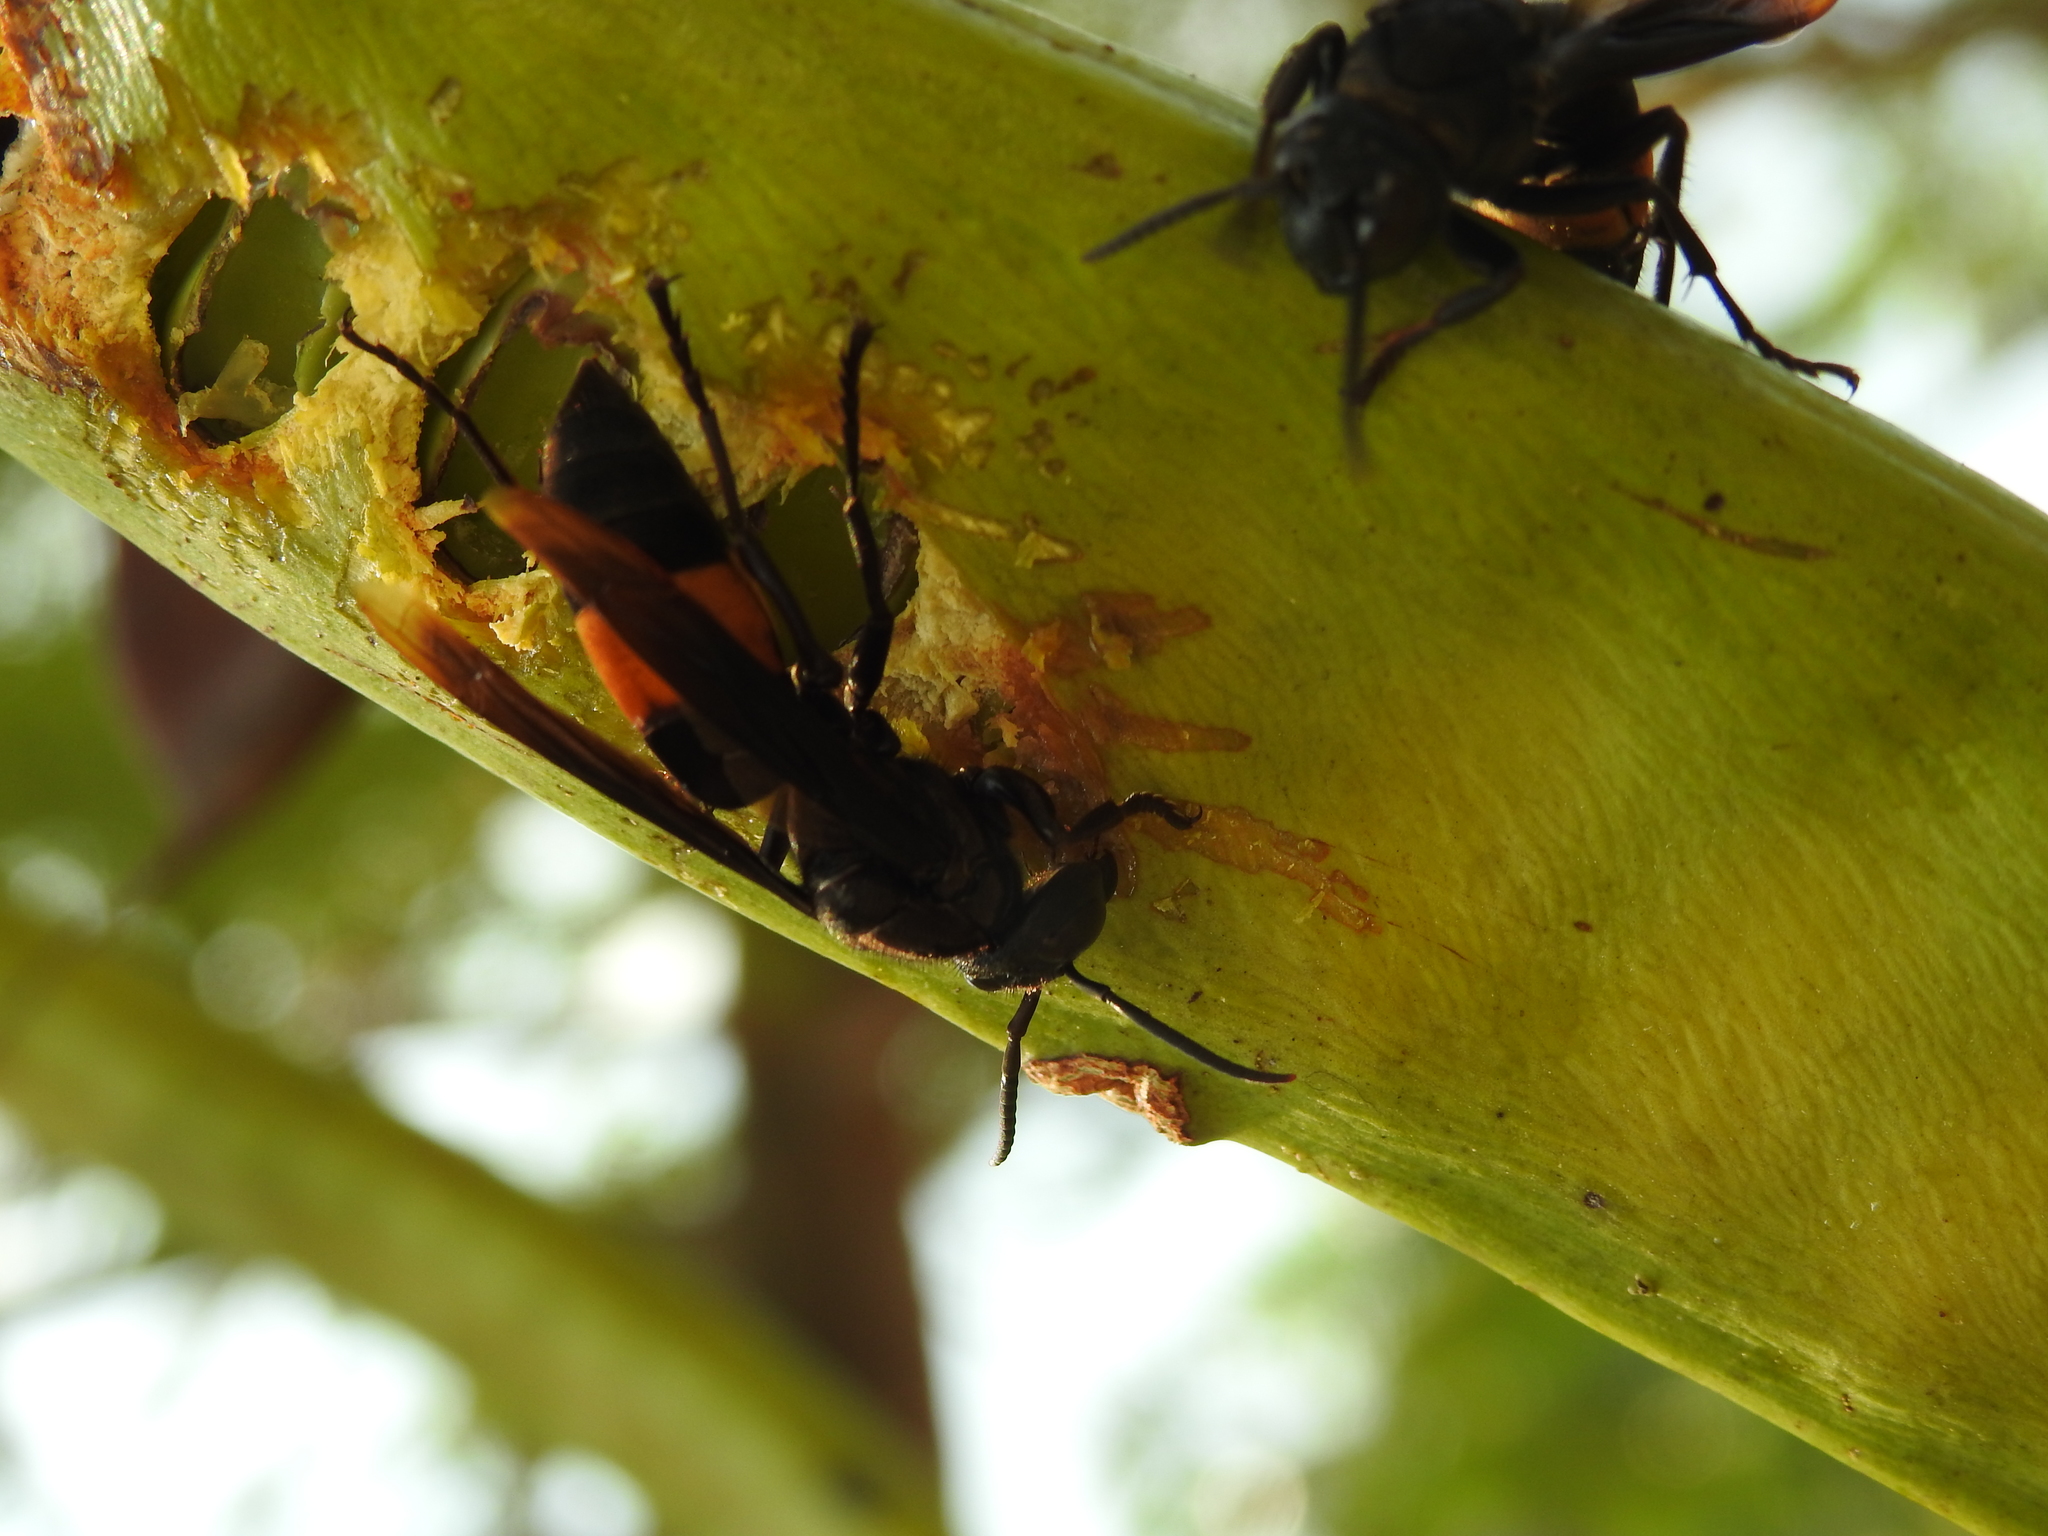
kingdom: Animalia
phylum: Arthropoda
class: Insecta
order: Hymenoptera
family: Vespidae
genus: Vespa
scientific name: Vespa tropica
